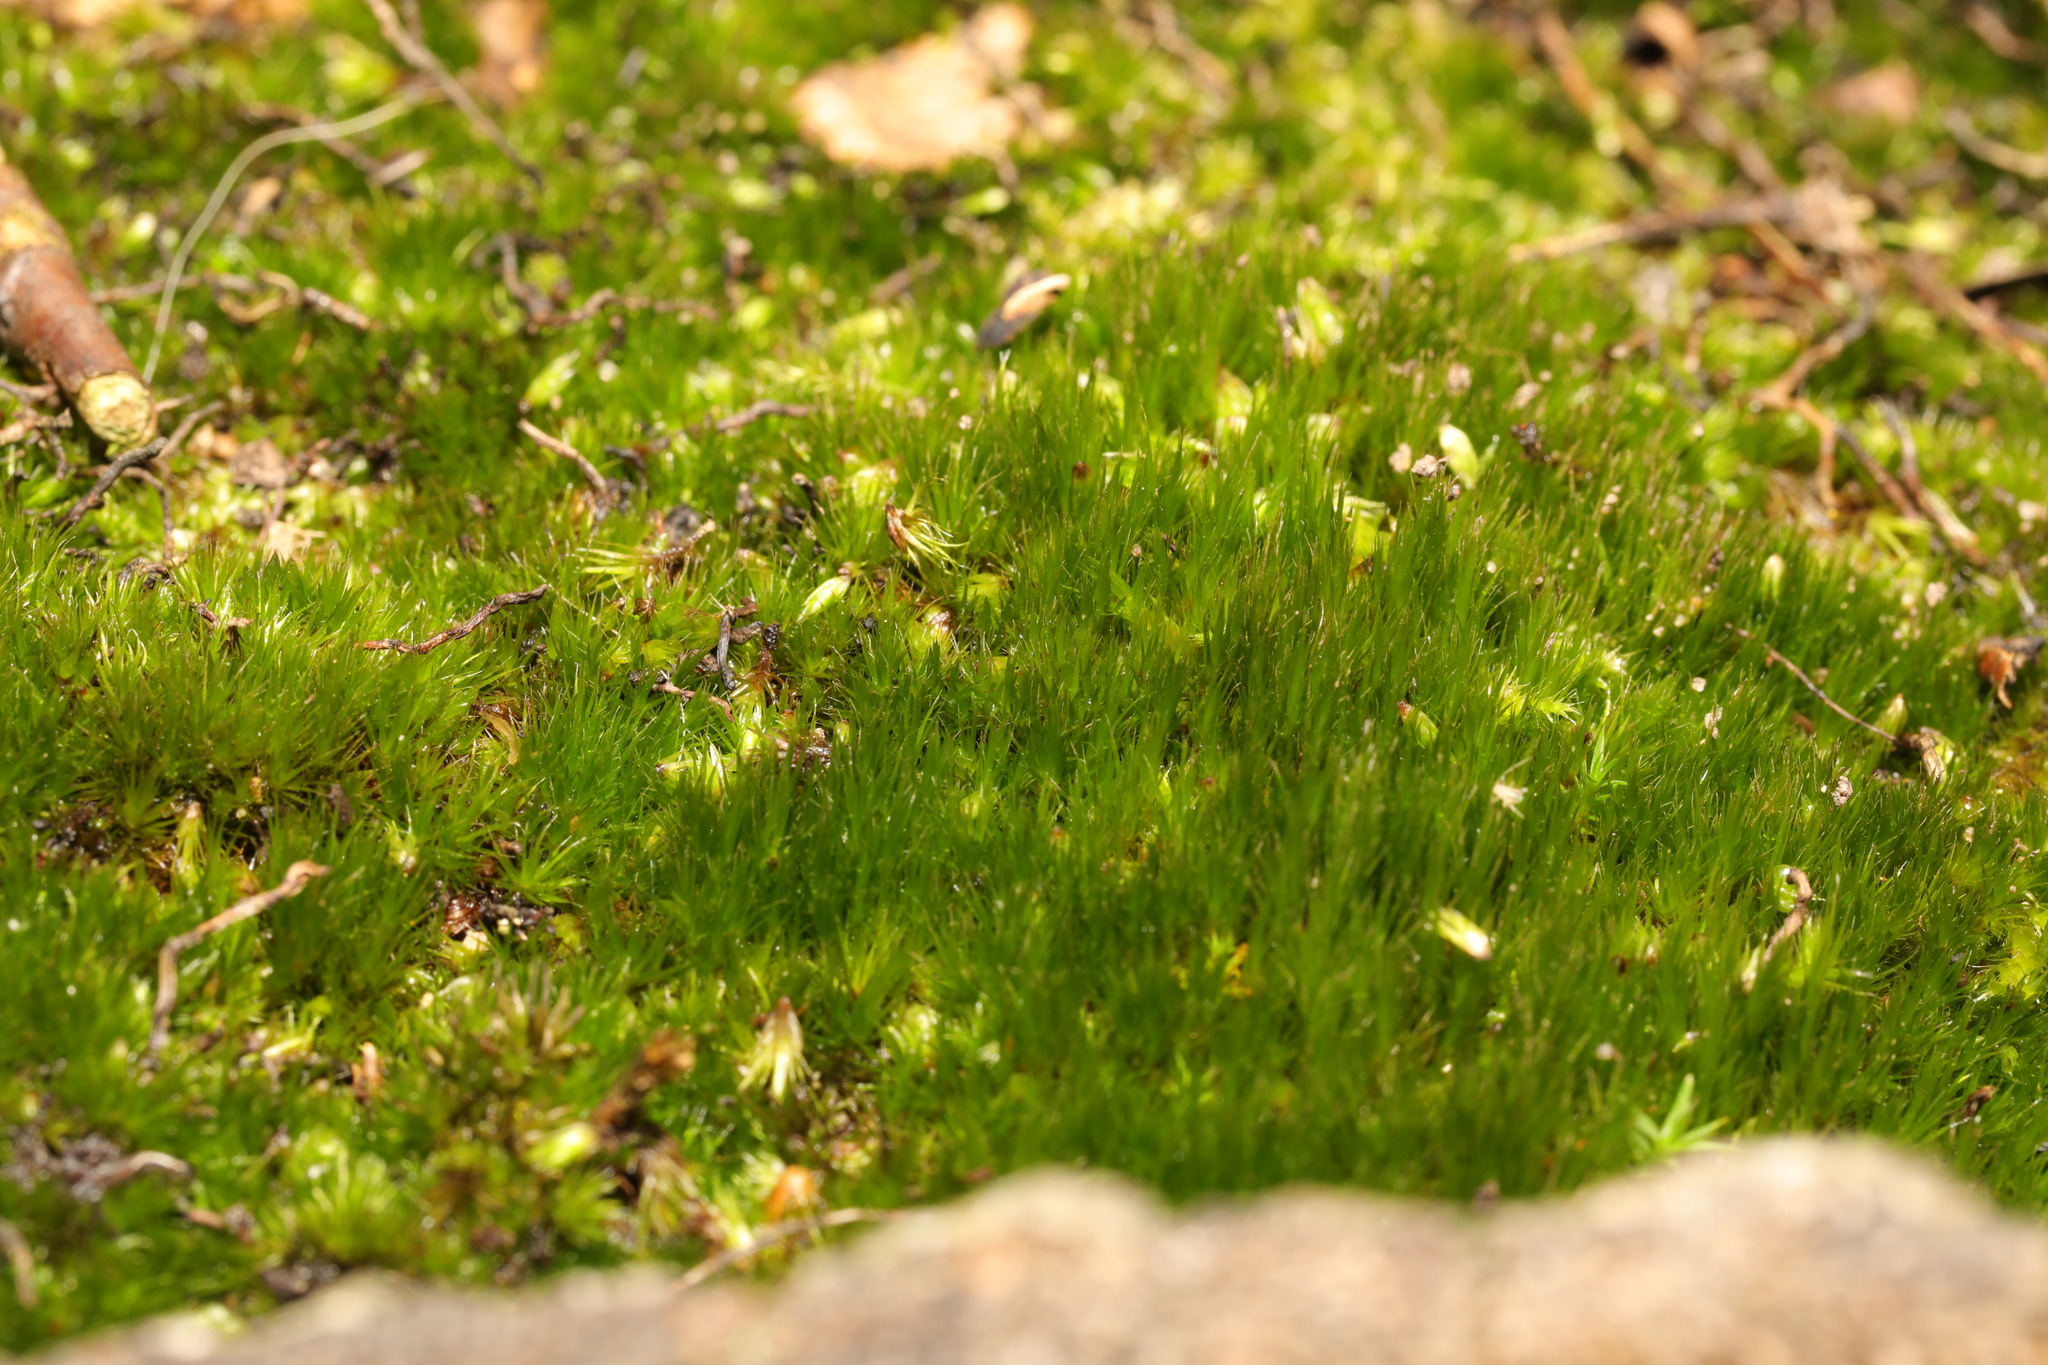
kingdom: Plantae
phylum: Bryophyta
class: Bryopsida
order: Dicranales
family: Leucobryaceae
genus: Campylopus
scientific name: Campylopus introflexus
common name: Heath star moss
